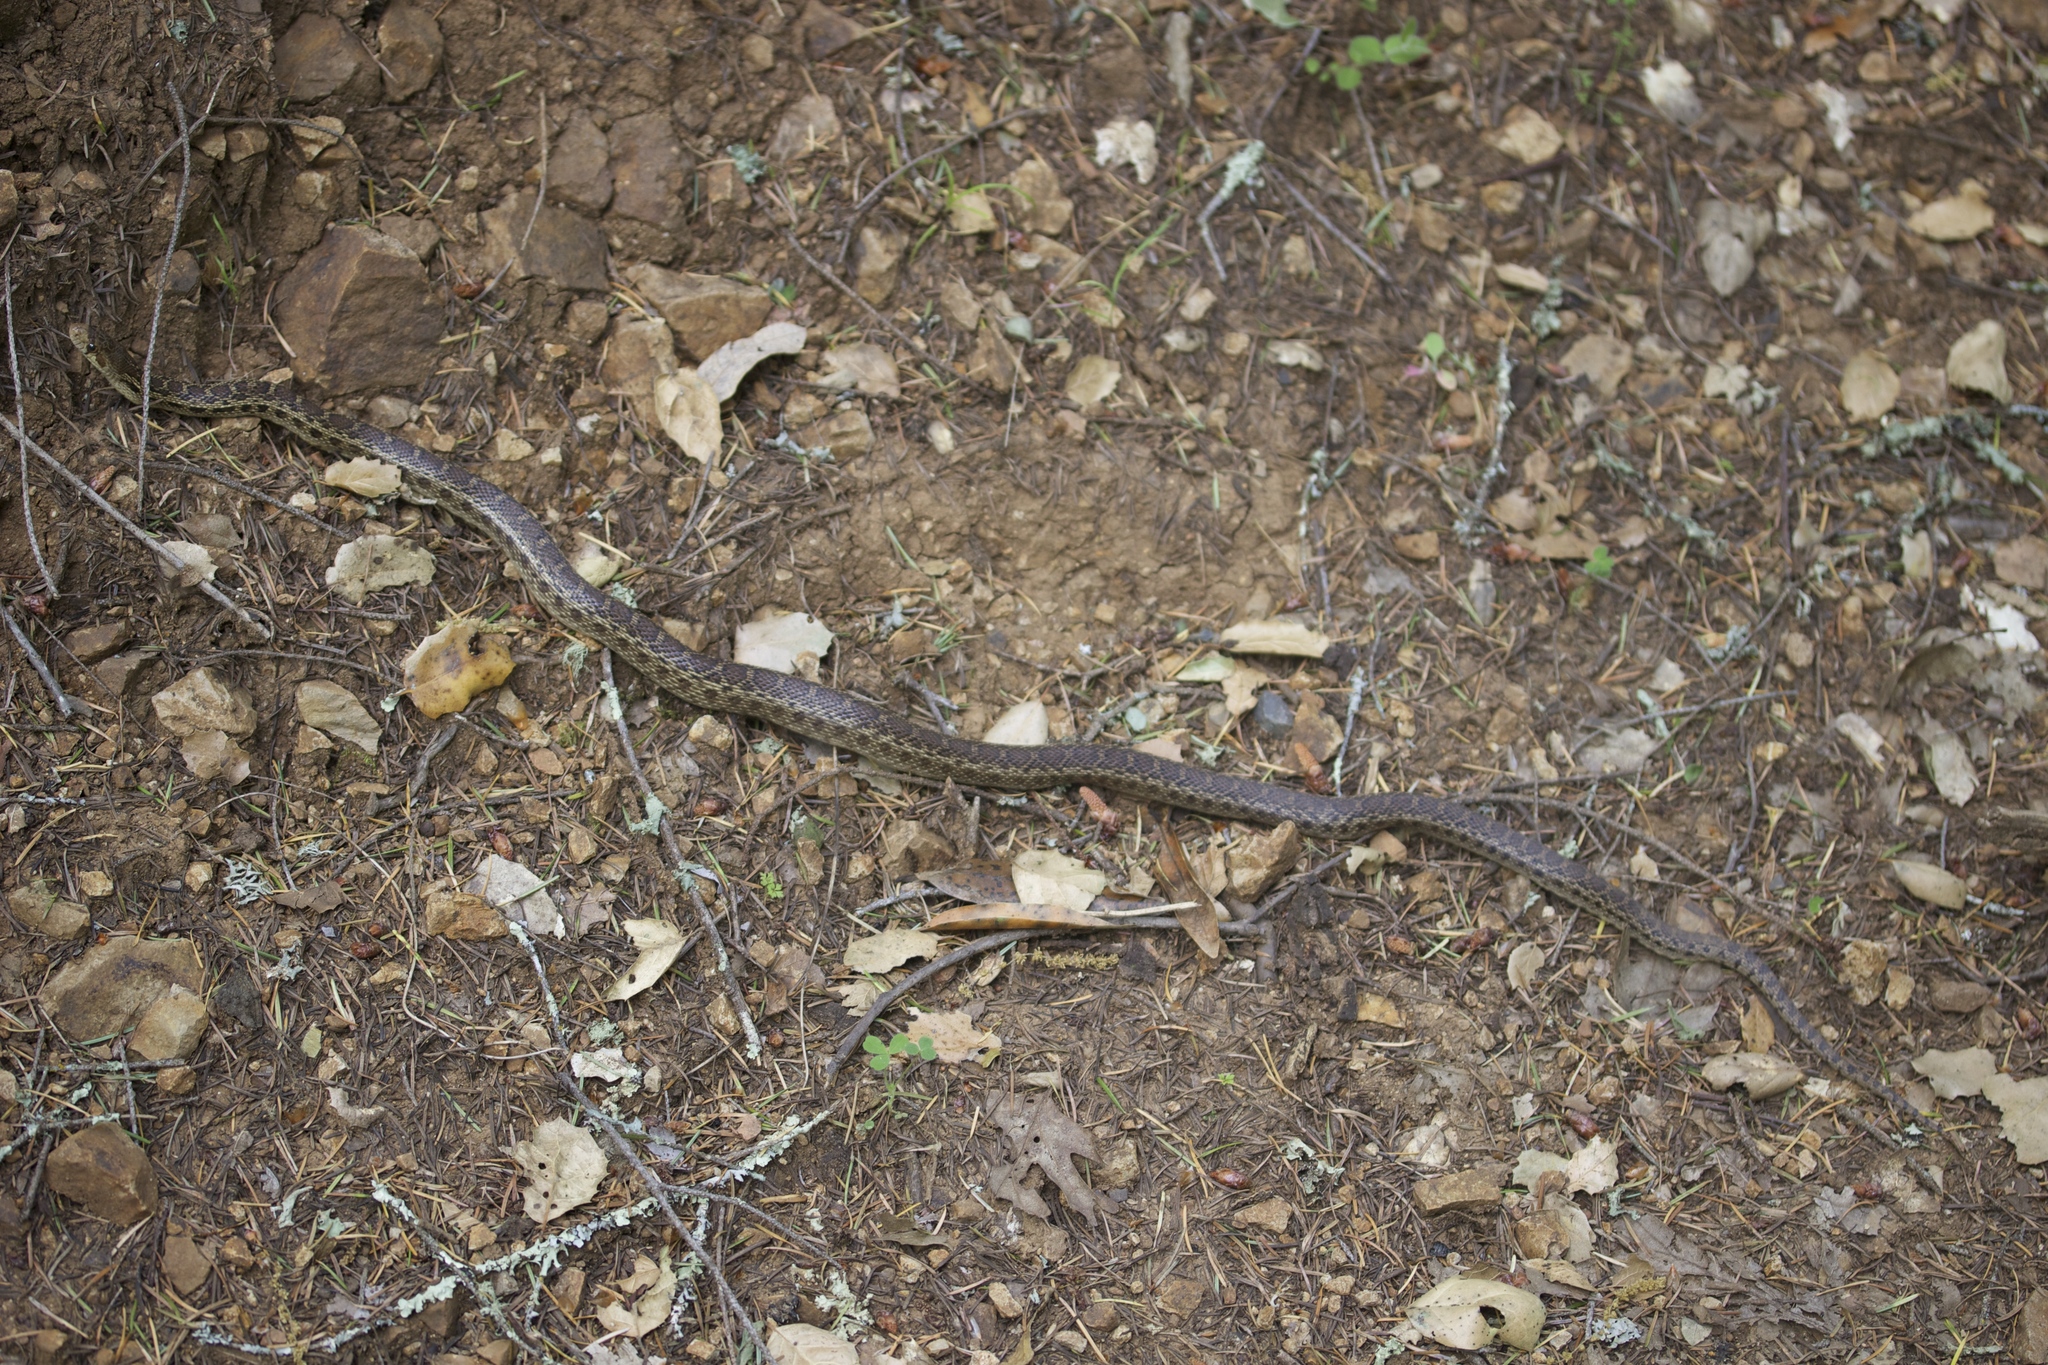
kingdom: Animalia
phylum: Chordata
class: Squamata
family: Colubridae
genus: Pituophis
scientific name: Pituophis catenifer
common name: Gopher snake
